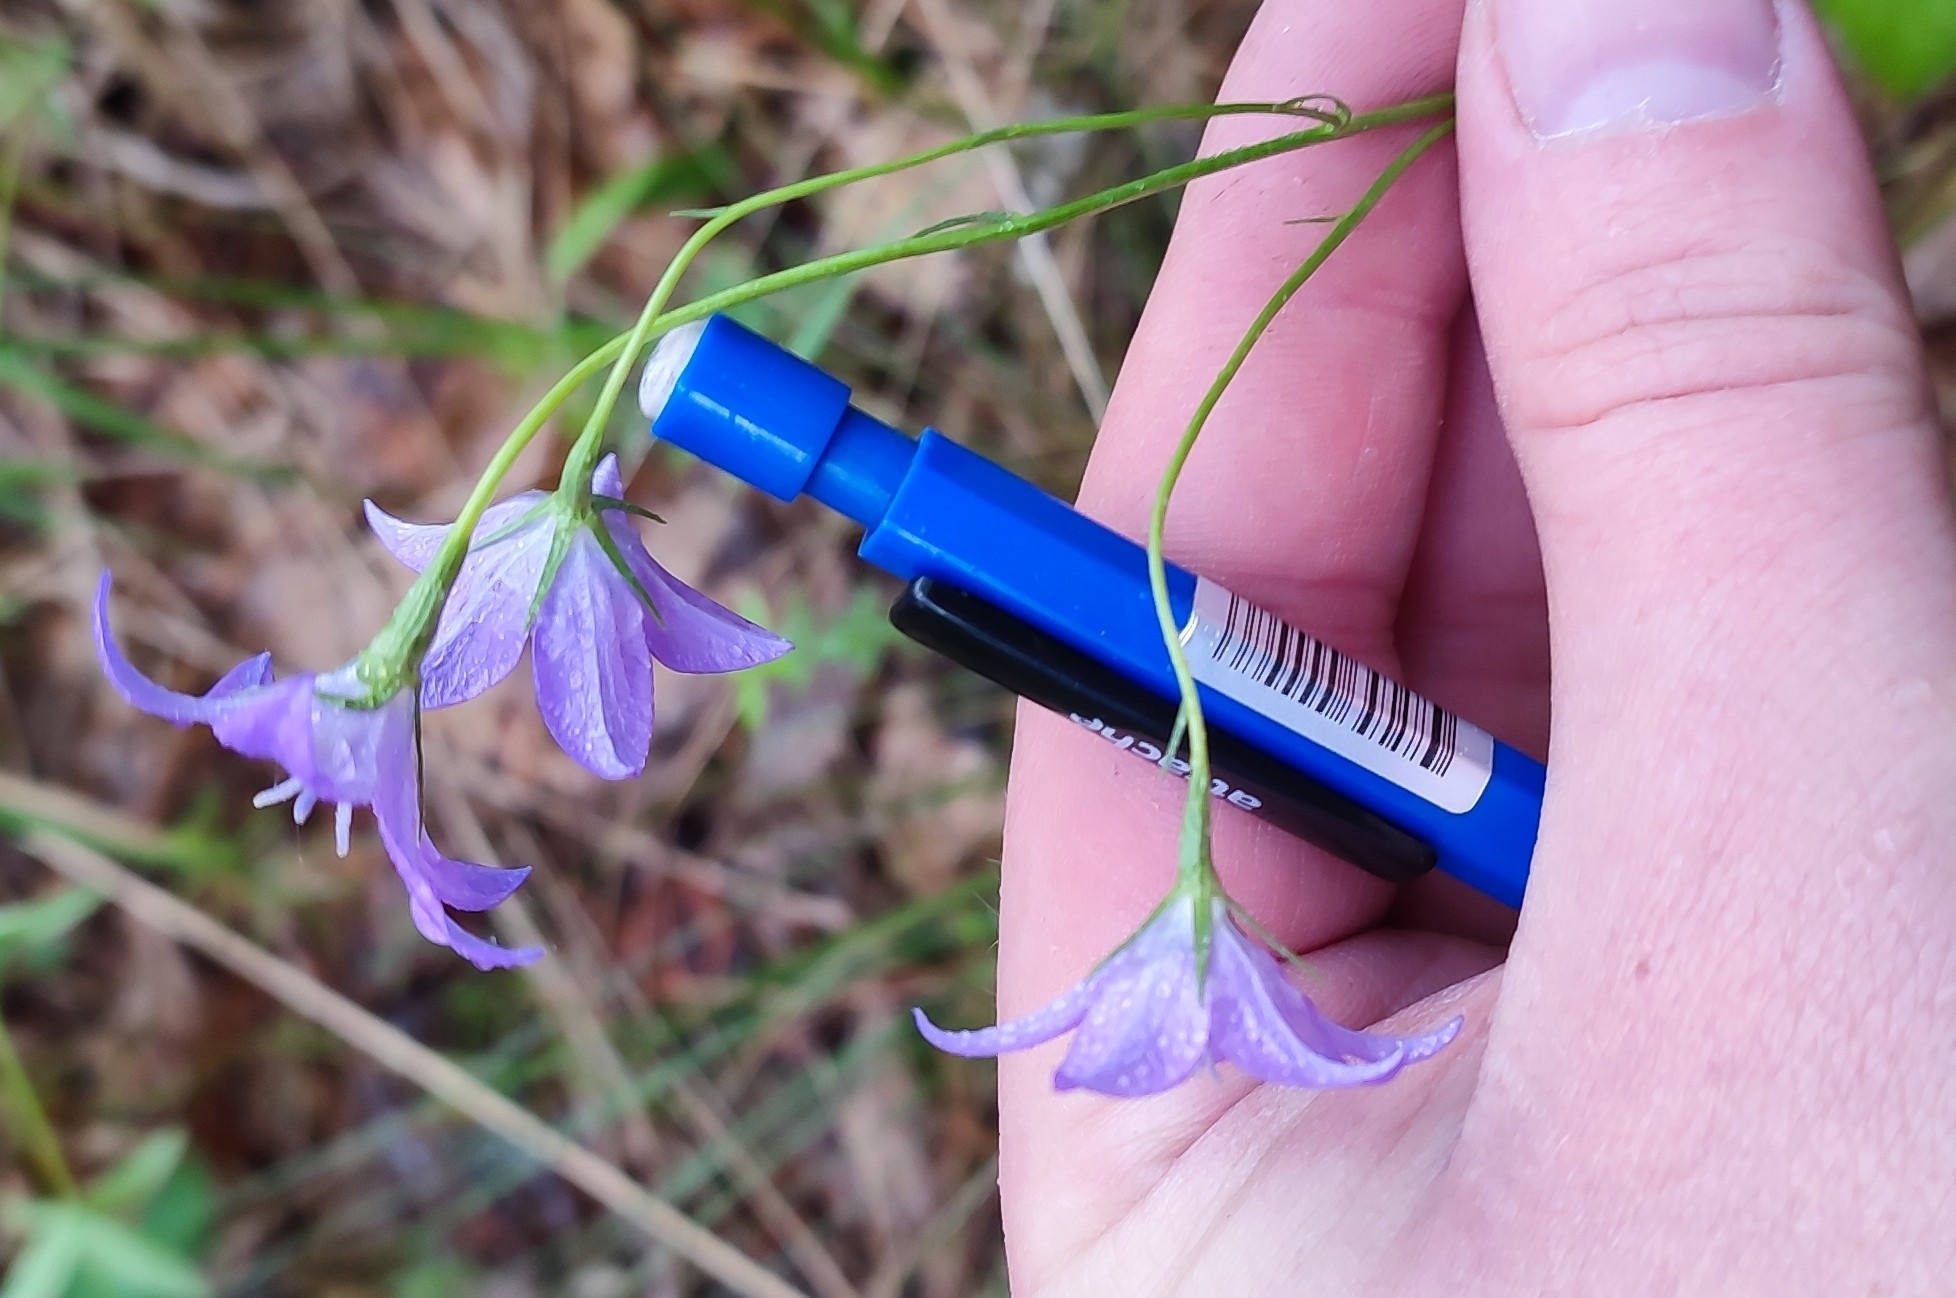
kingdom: Plantae
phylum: Tracheophyta
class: Magnoliopsida
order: Asterales
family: Campanulaceae
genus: Campanula
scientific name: Campanula stevenii
